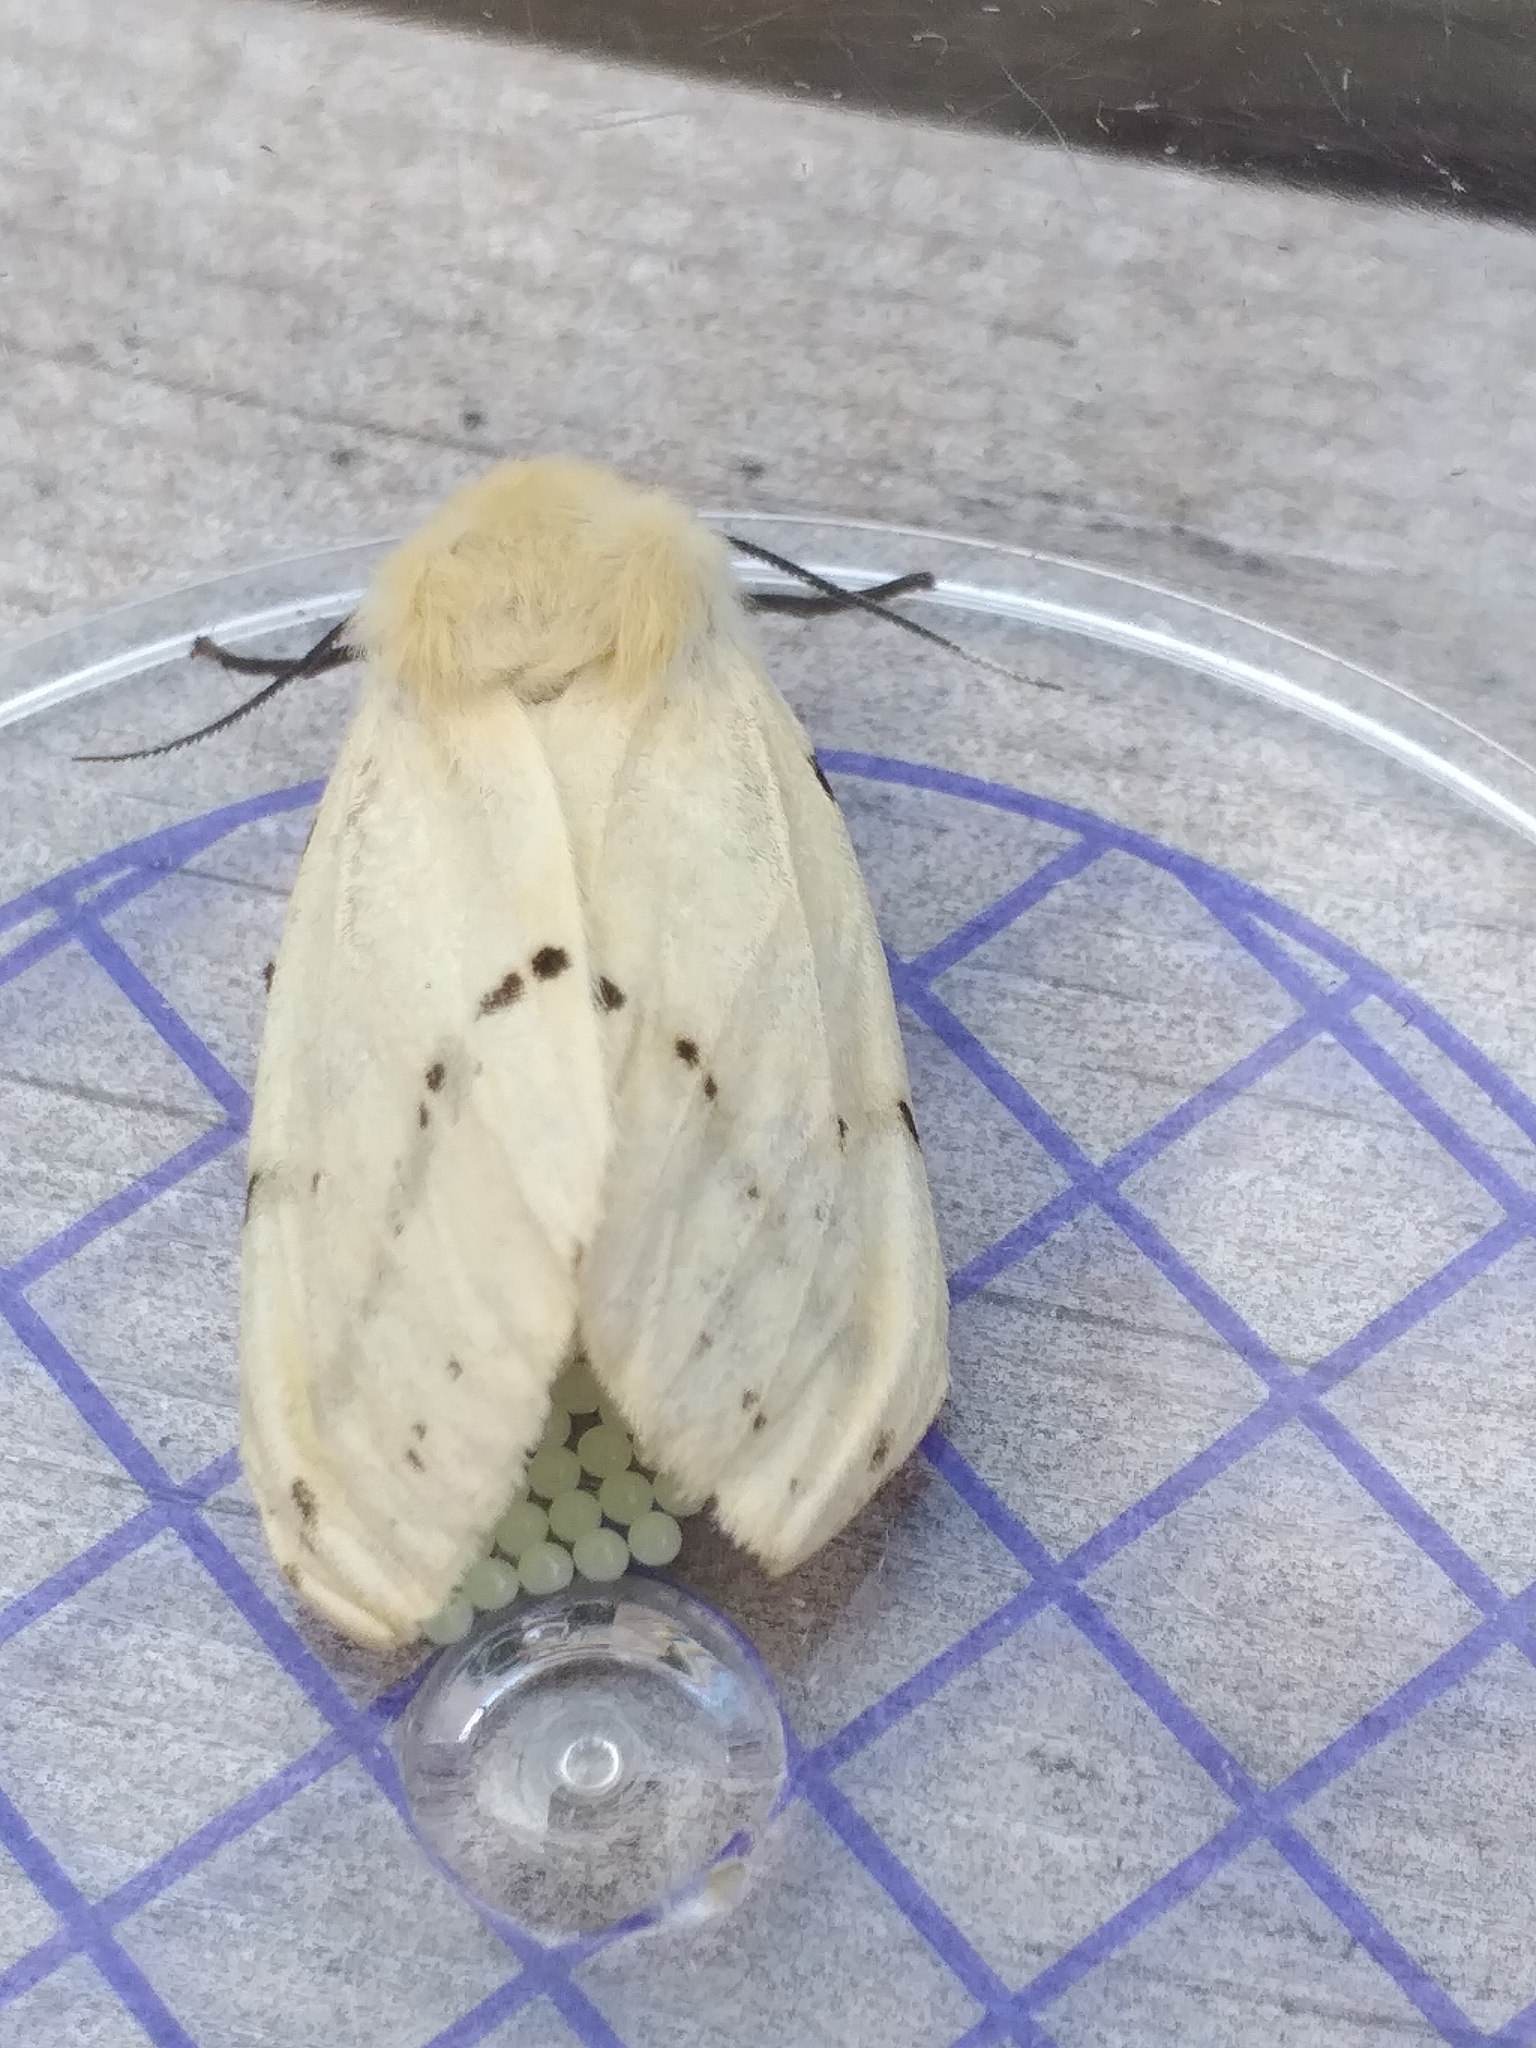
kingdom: Animalia
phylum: Arthropoda
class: Insecta
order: Lepidoptera
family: Erebidae
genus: Spilarctia
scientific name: Spilarctia lutea
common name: Buff ermine
